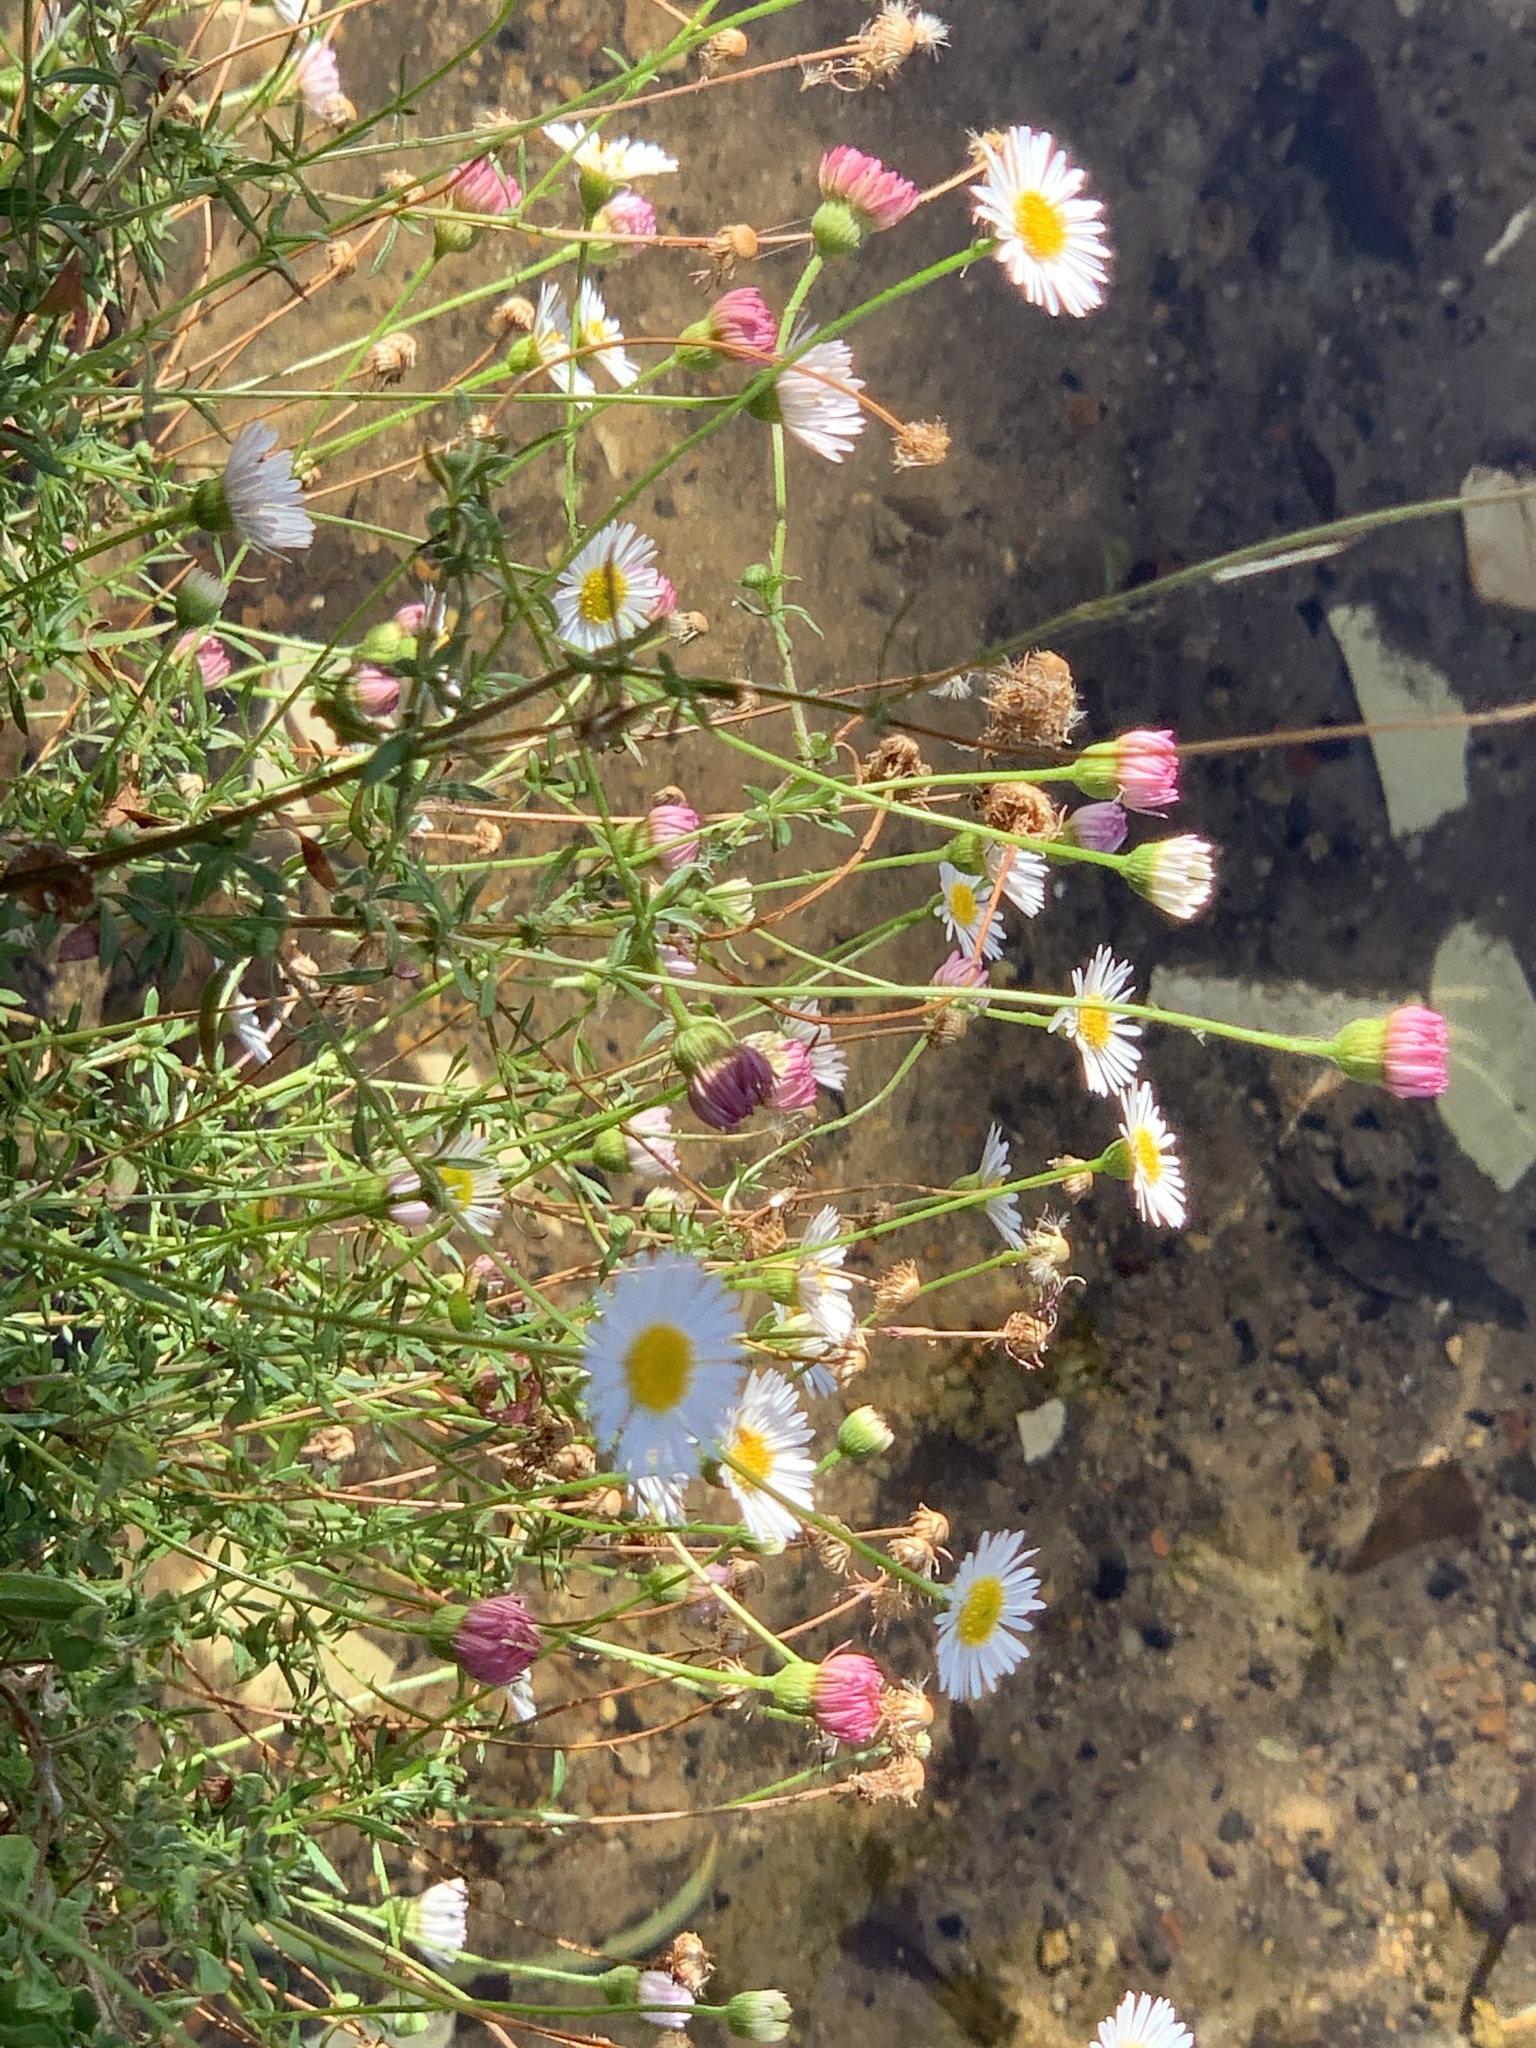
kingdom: Plantae
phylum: Tracheophyta
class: Magnoliopsida
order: Asterales
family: Asteraceae
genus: Erigeron
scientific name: Erigeron karvinskianus
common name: Mexican fleabane
